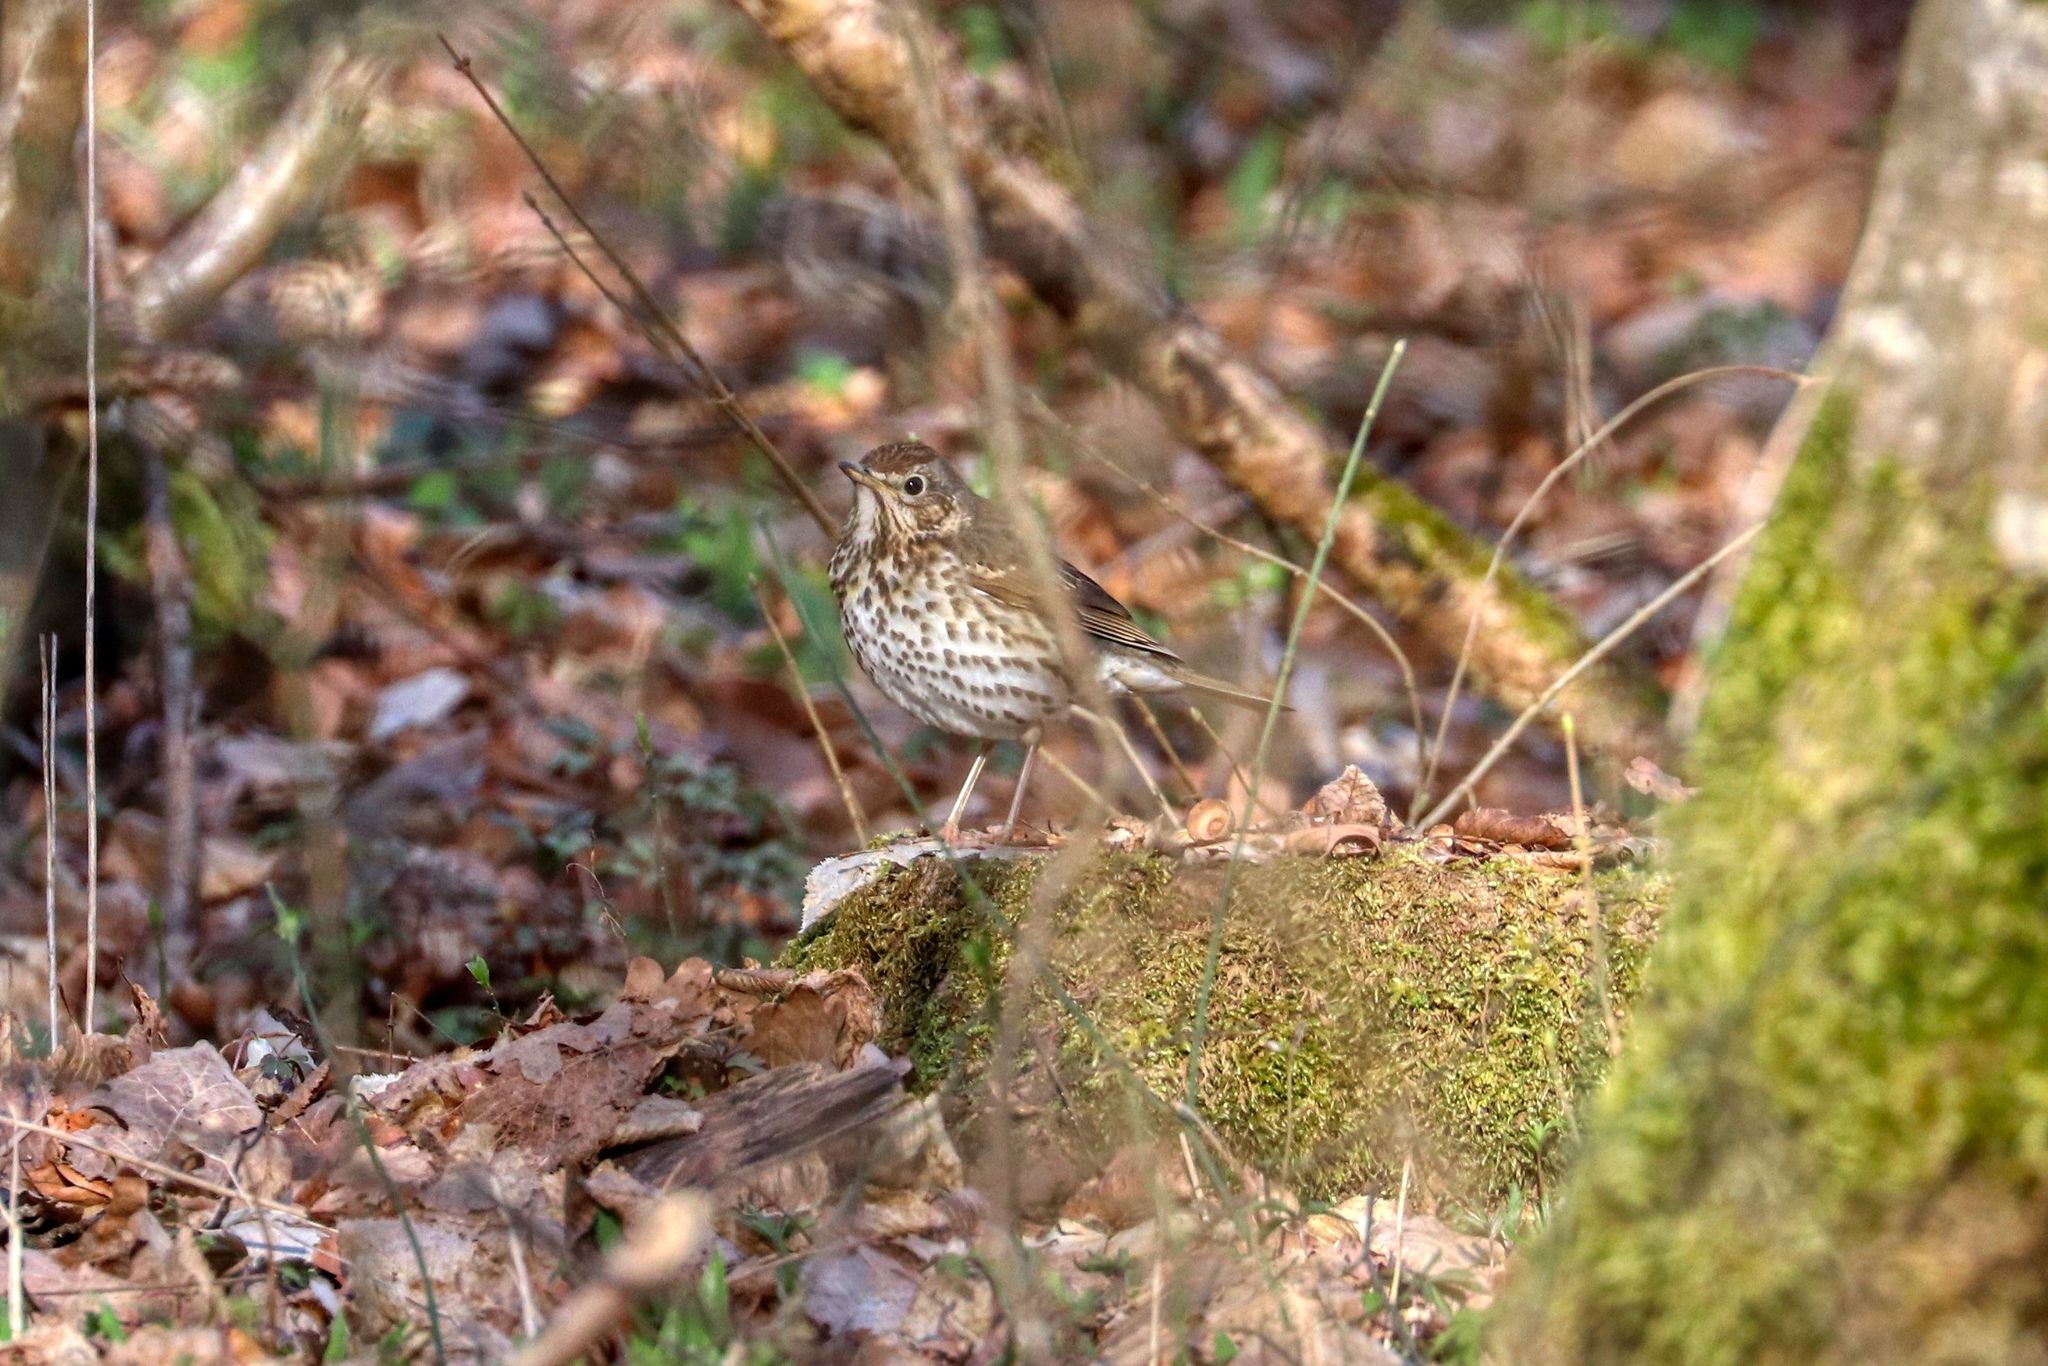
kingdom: Animalia
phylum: Chordata
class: Aves
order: Passeriformes
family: Turdidae
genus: Turdus
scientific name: Turdus philomelos
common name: Song thrush
